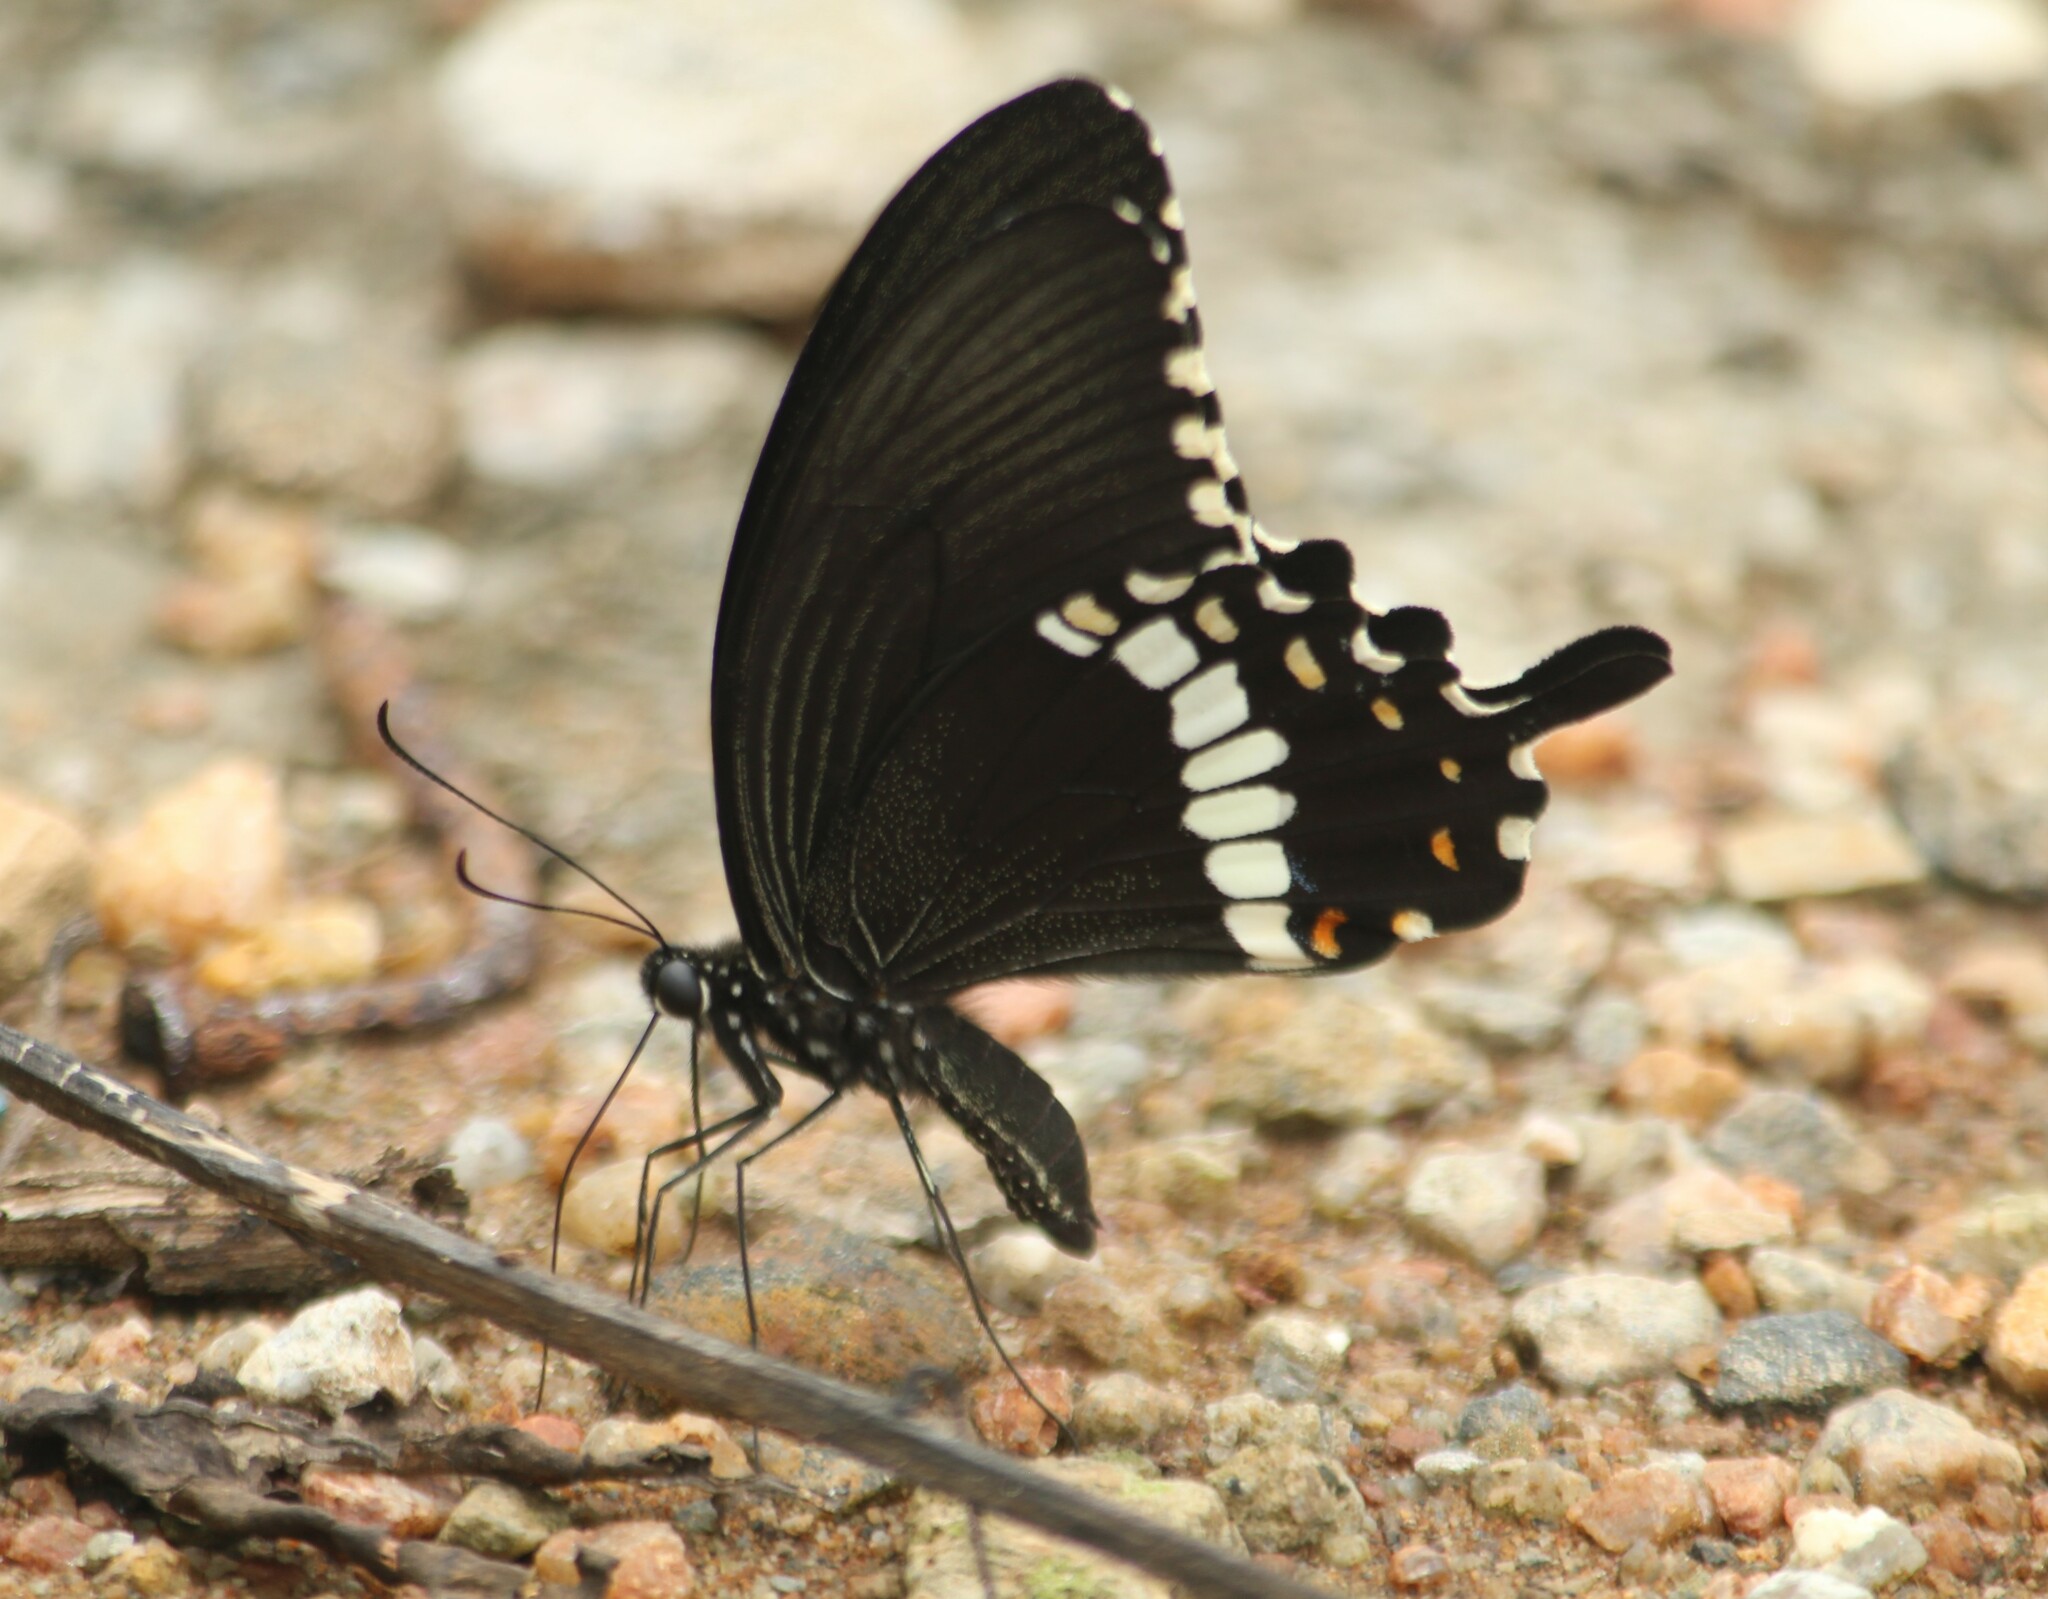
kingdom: Animalia
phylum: Arthropoda
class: Insecta
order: Lepidoptera
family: Papilionidae
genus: Papilio
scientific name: Papilio polytes
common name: Common mormon
